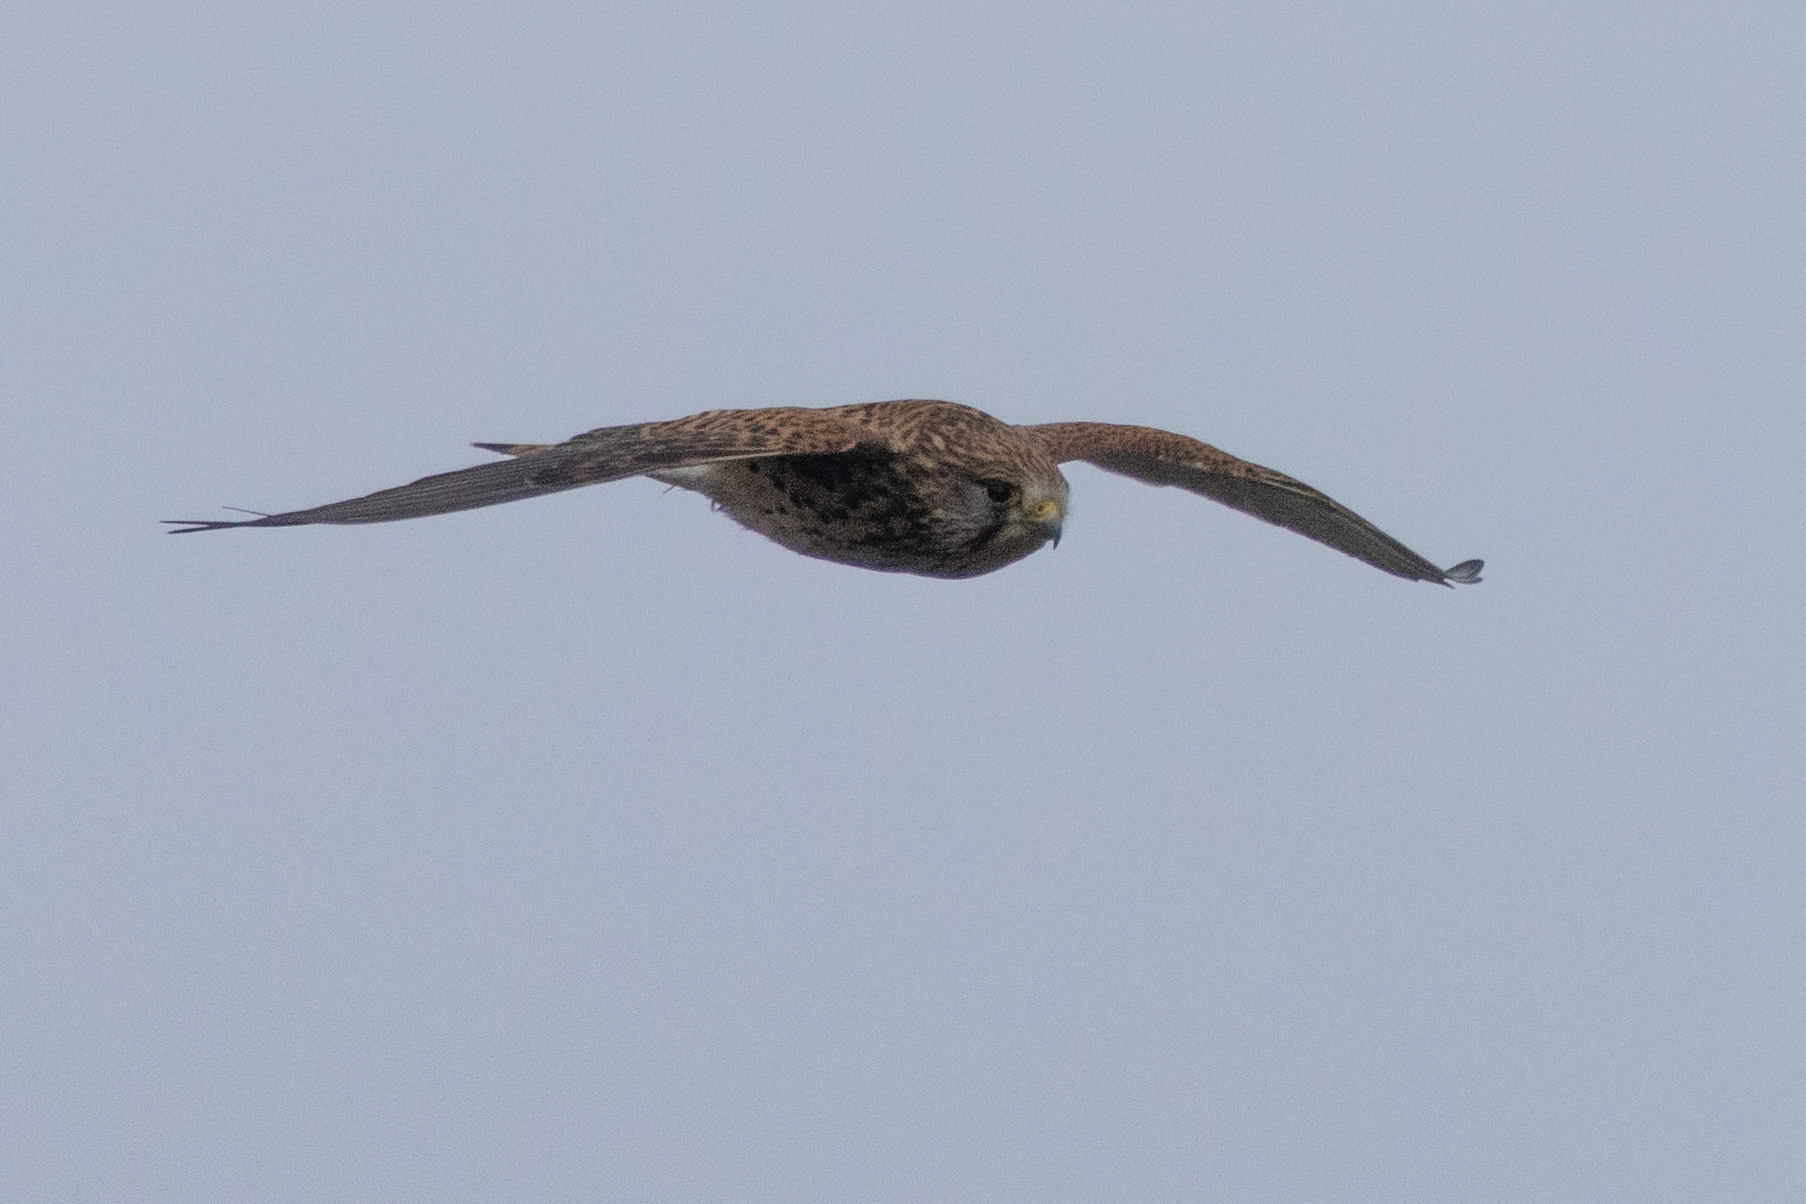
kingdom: Animalia
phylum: Chordata
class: Aves
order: Falconiformes
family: Falconidae
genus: Falco
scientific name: Falco tinnunculus
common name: Common kestrel
